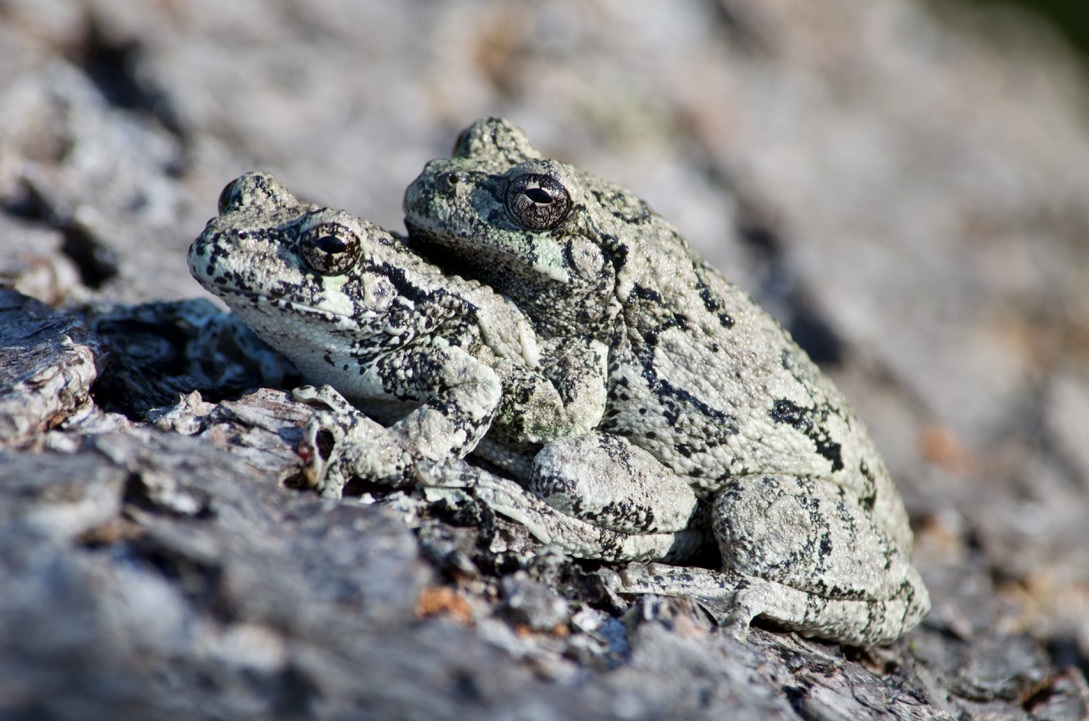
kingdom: Animalia
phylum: Chordata
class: Amphibia
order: Anura
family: Hylidae
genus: Dryophytes
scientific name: Dryophytes versicolor
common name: Gray treefrog
